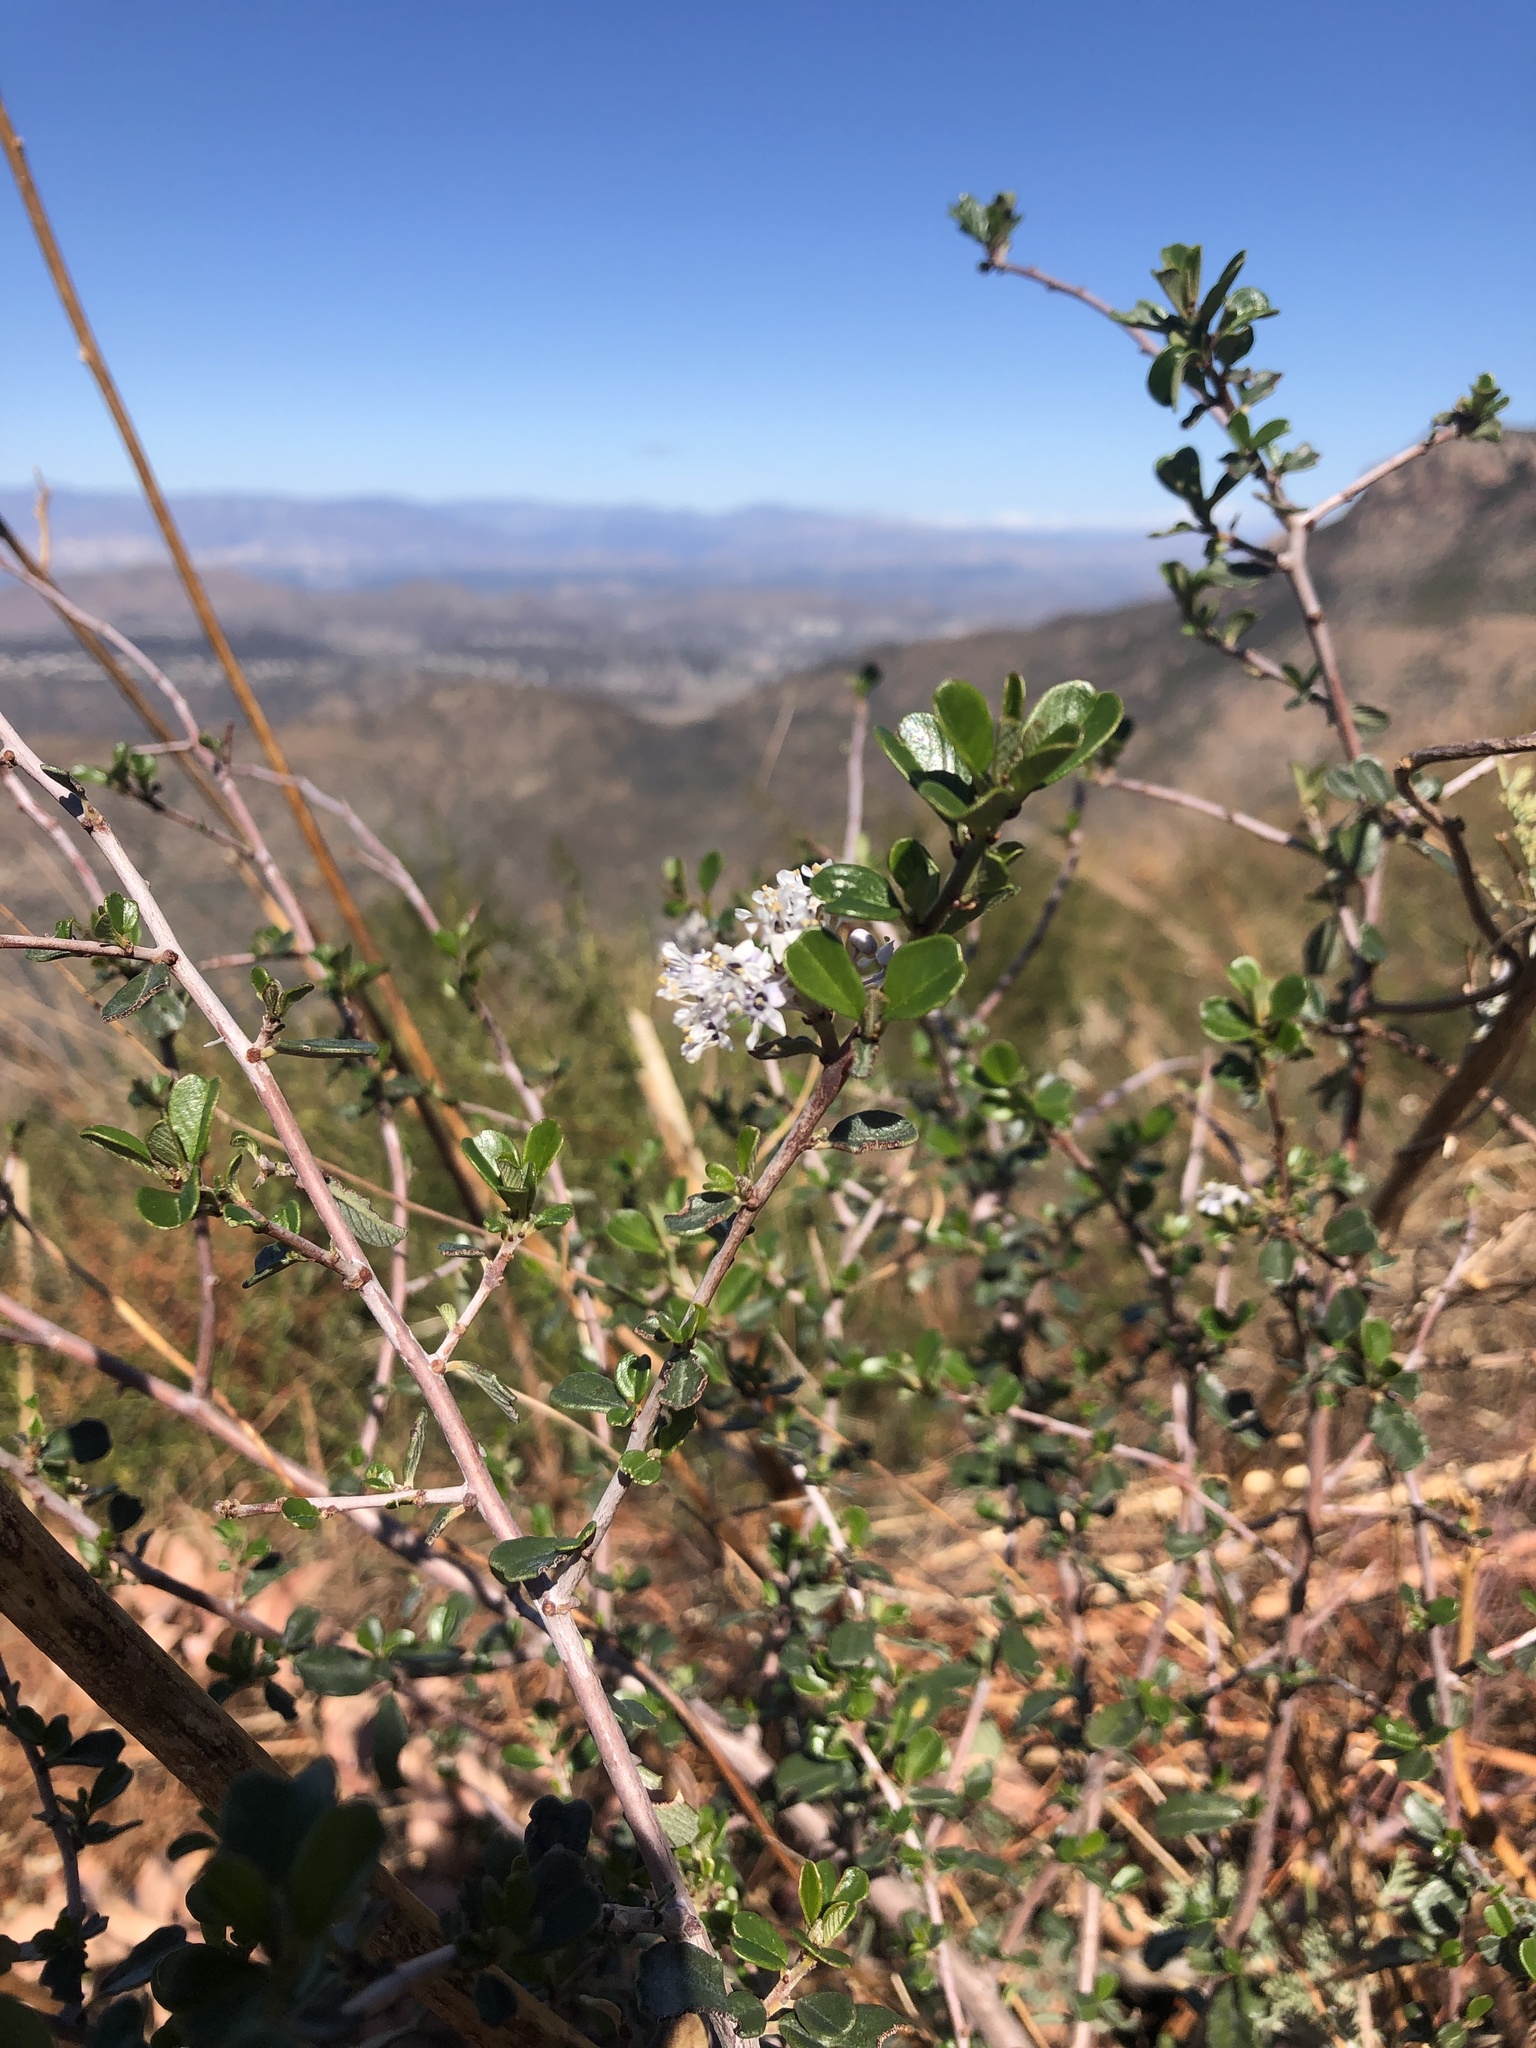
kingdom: Plantae
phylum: Tracheophyta
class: Magnoliopsida
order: Rosales
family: Rhamnaceae
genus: Ceanothus
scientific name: Ceanothus megacarpus
